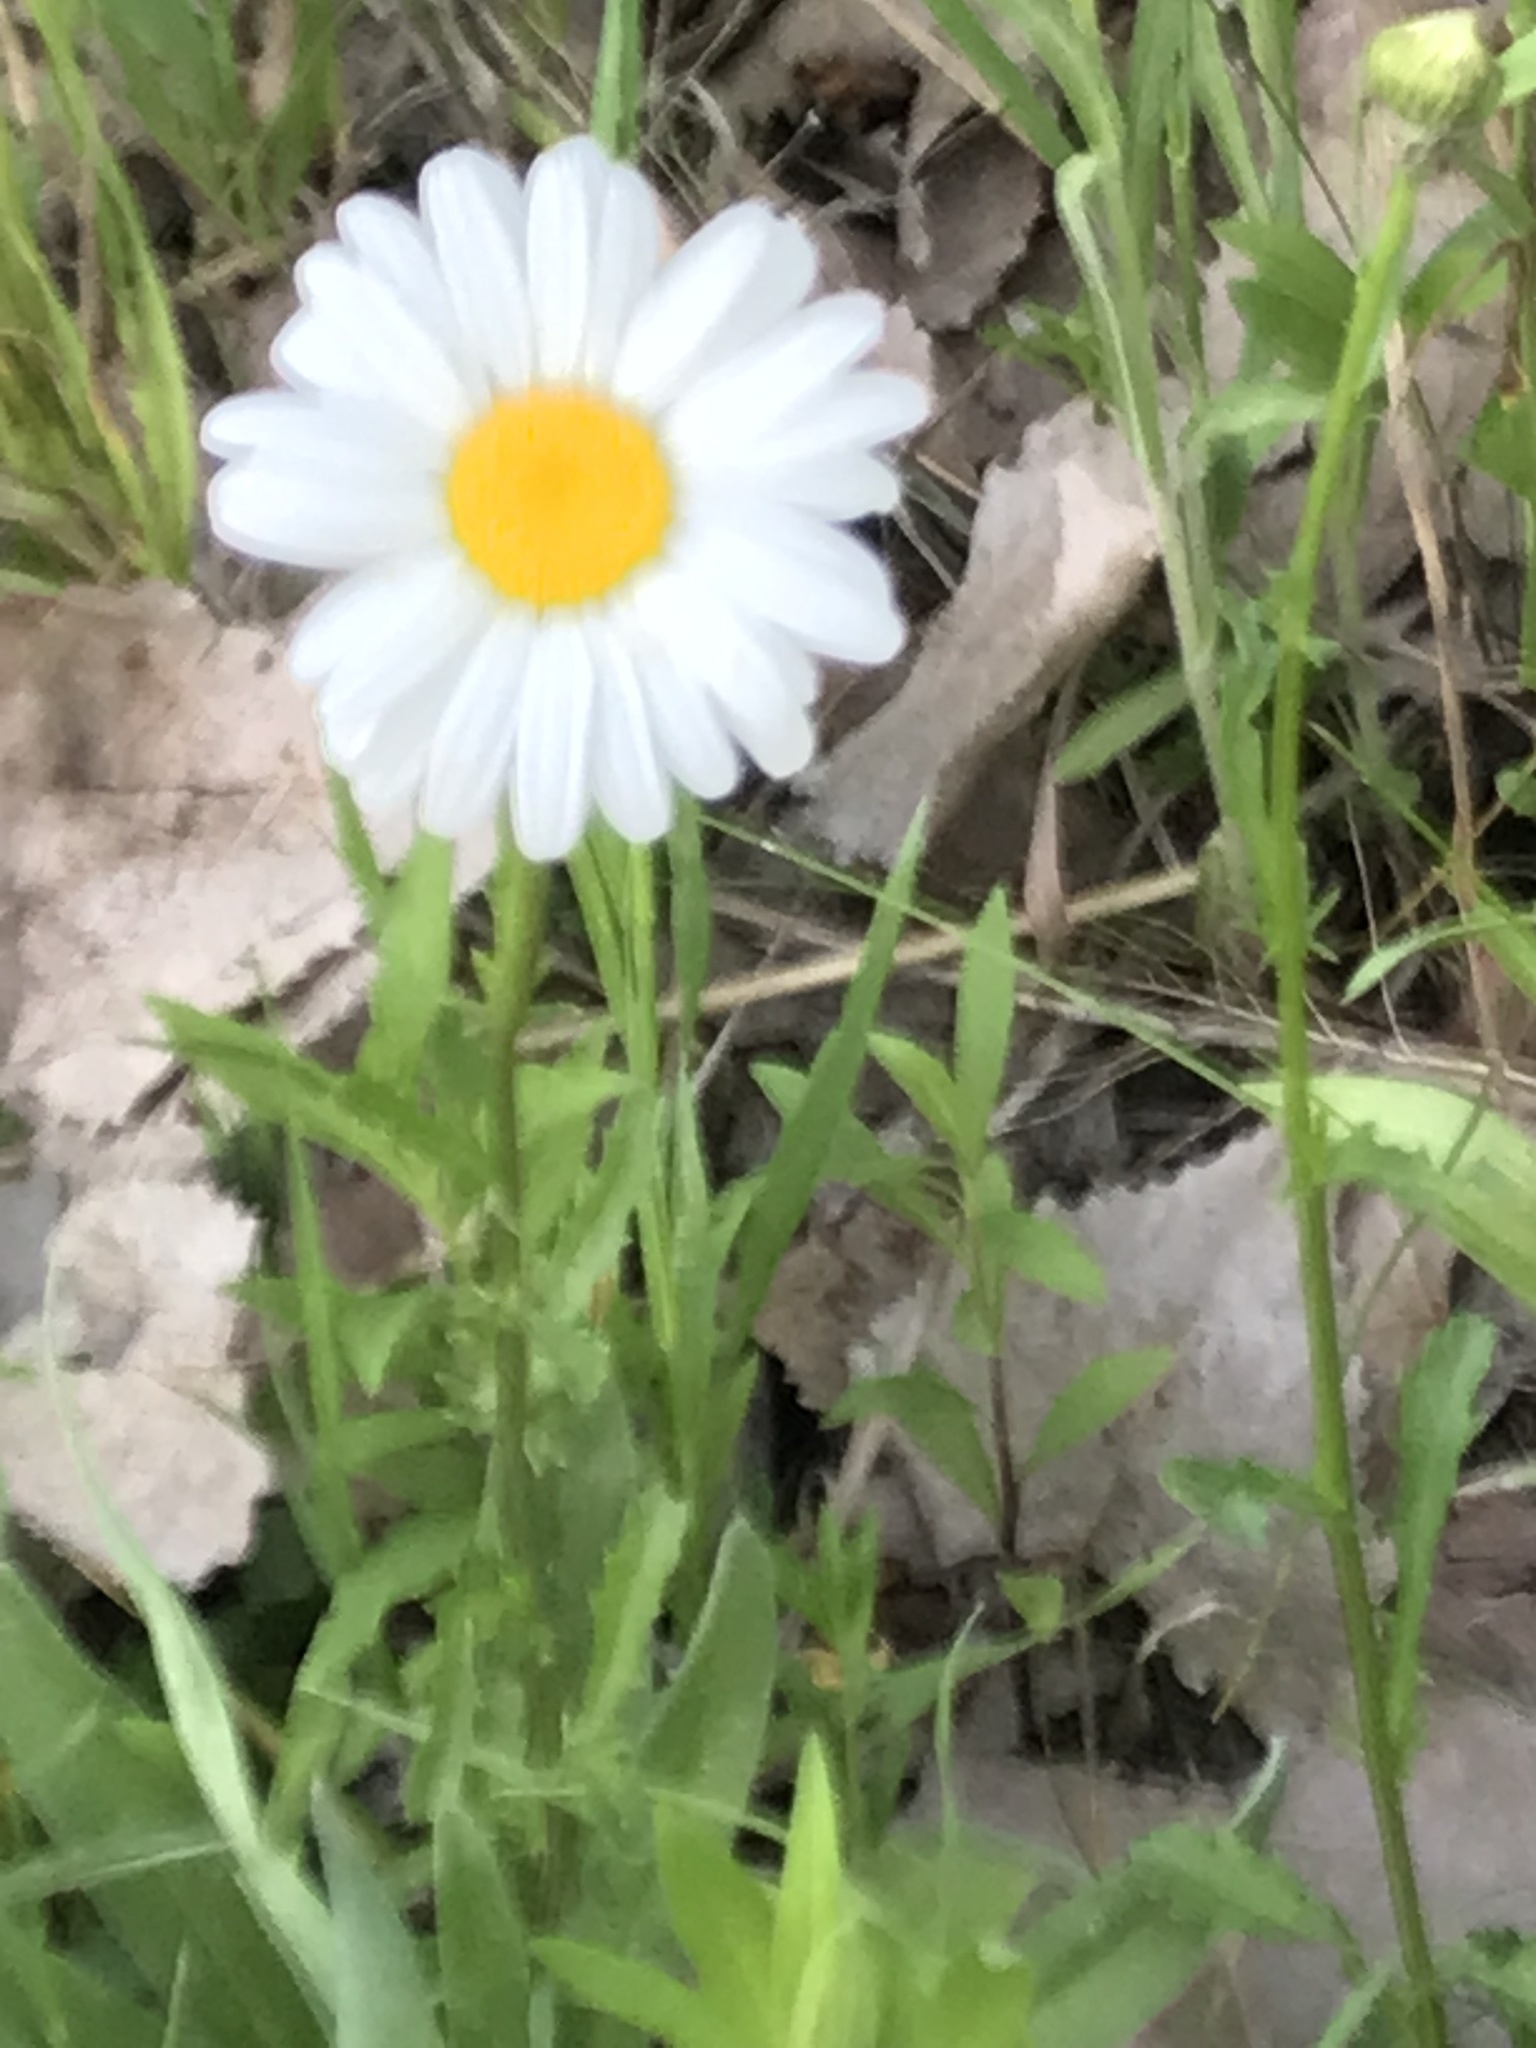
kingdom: Plantae
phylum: Tracheophyta
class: Magnoliopsida
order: Asterales
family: Asteraceae
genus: Leucanthemum
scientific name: Leucanthemum vulgare
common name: Oxeye daisy
